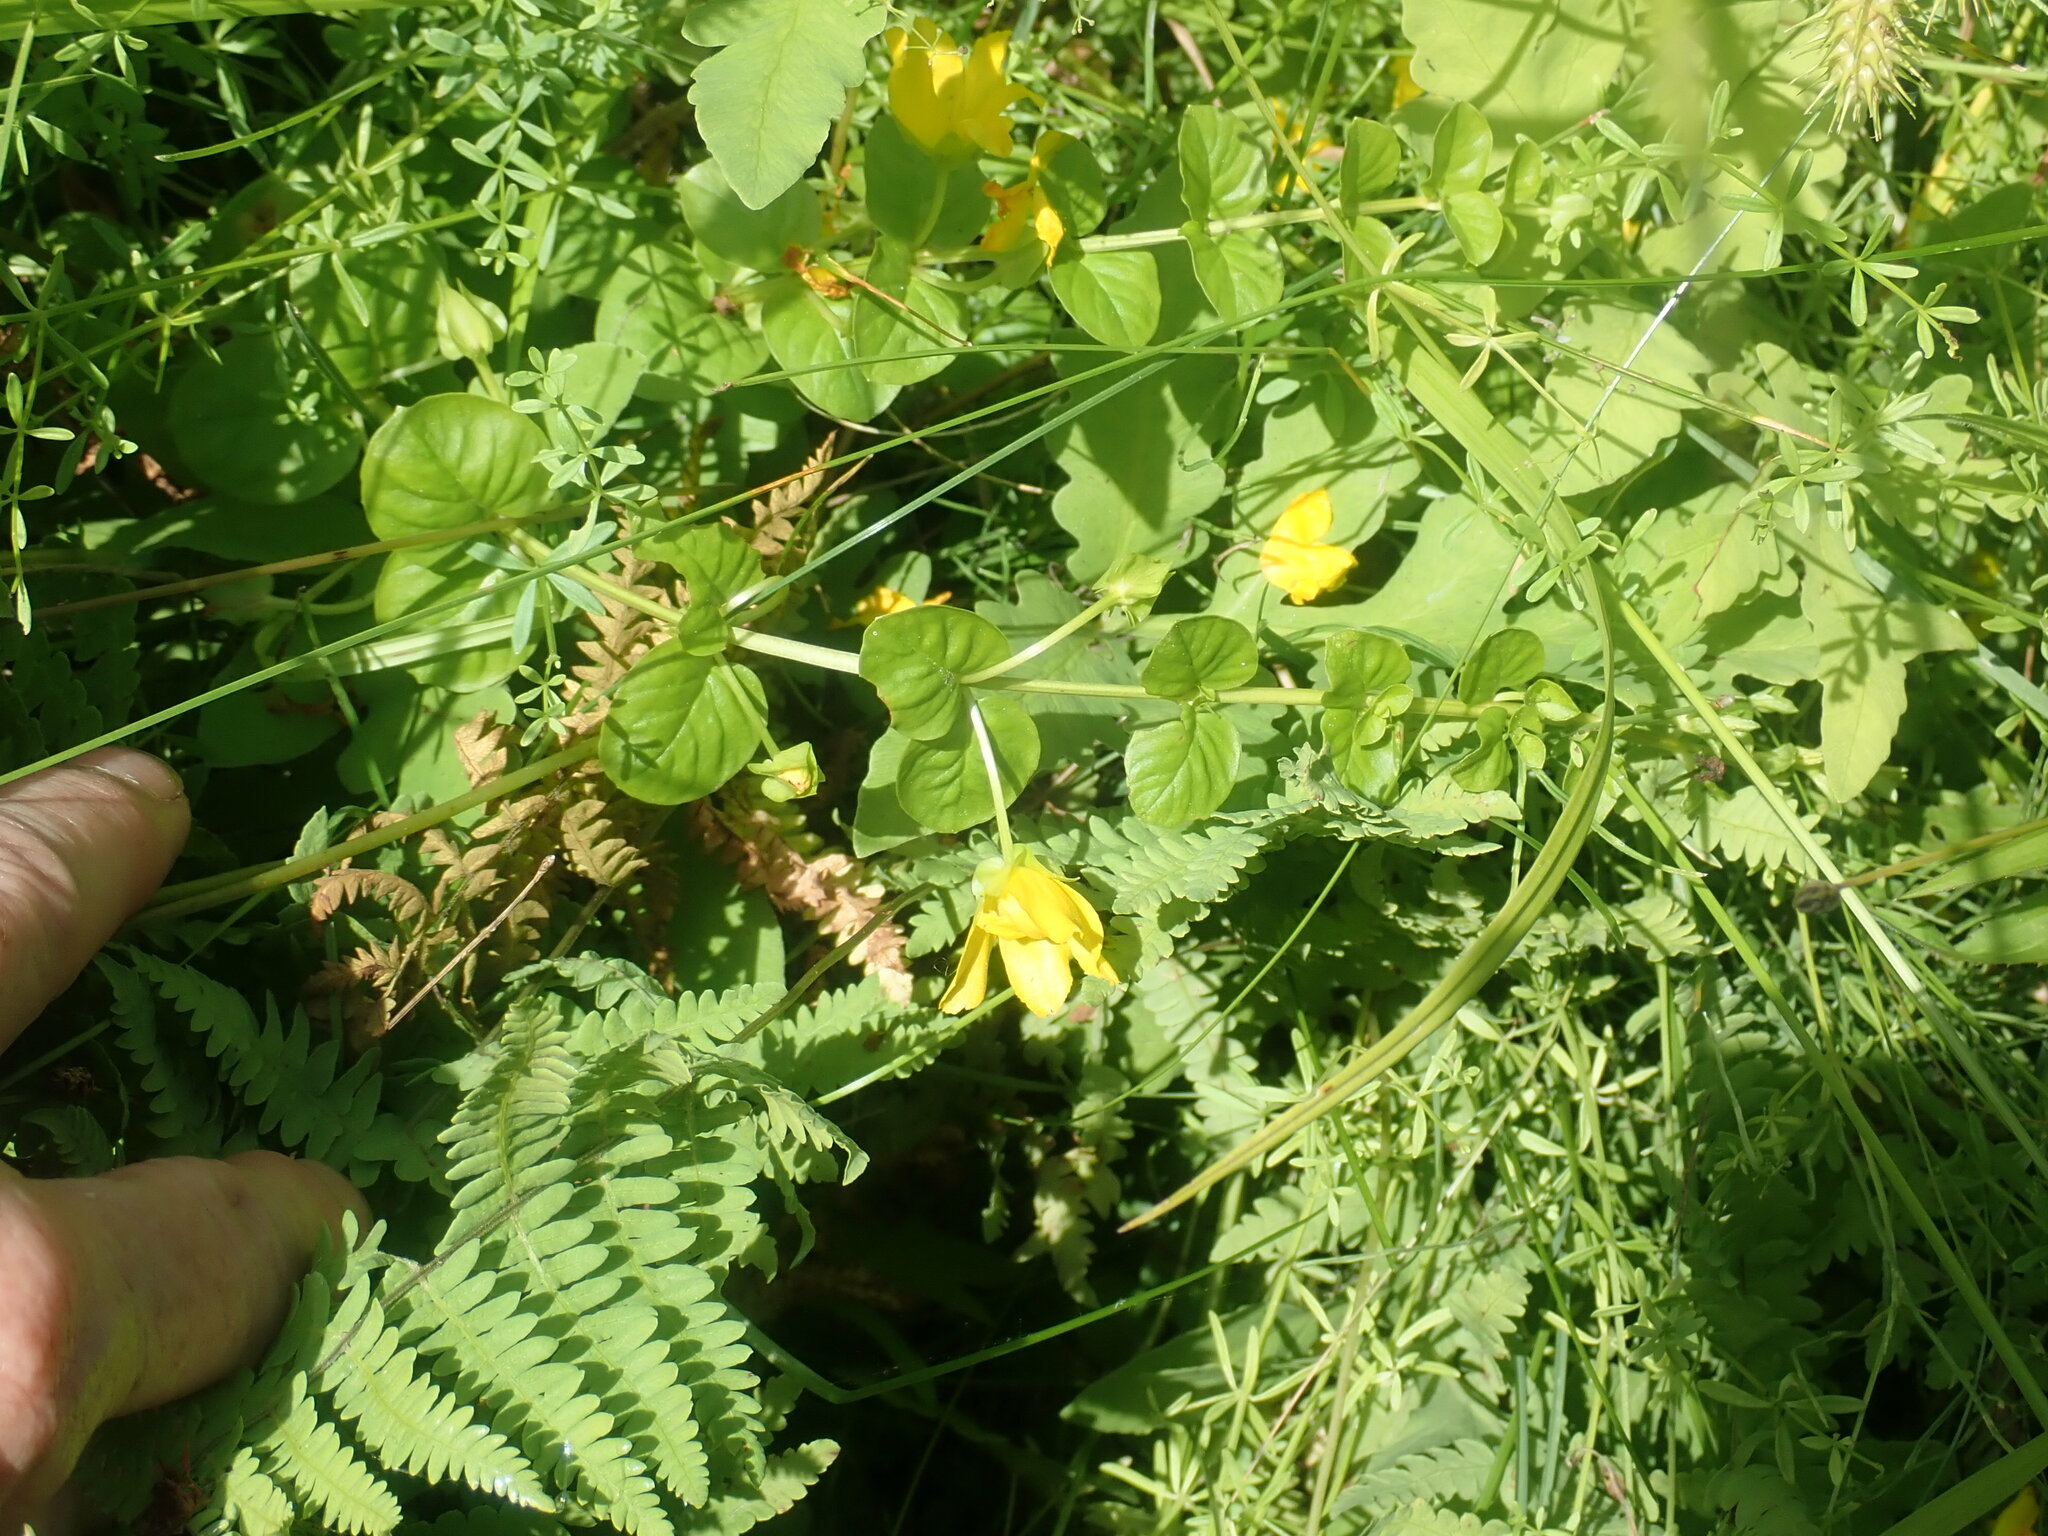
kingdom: Plantae
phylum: Tracheophyta
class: Magnoliopsida
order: Ericales
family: Primulaceae
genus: Lysimachia
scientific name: Lysimachia nummularia
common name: Moneywort
